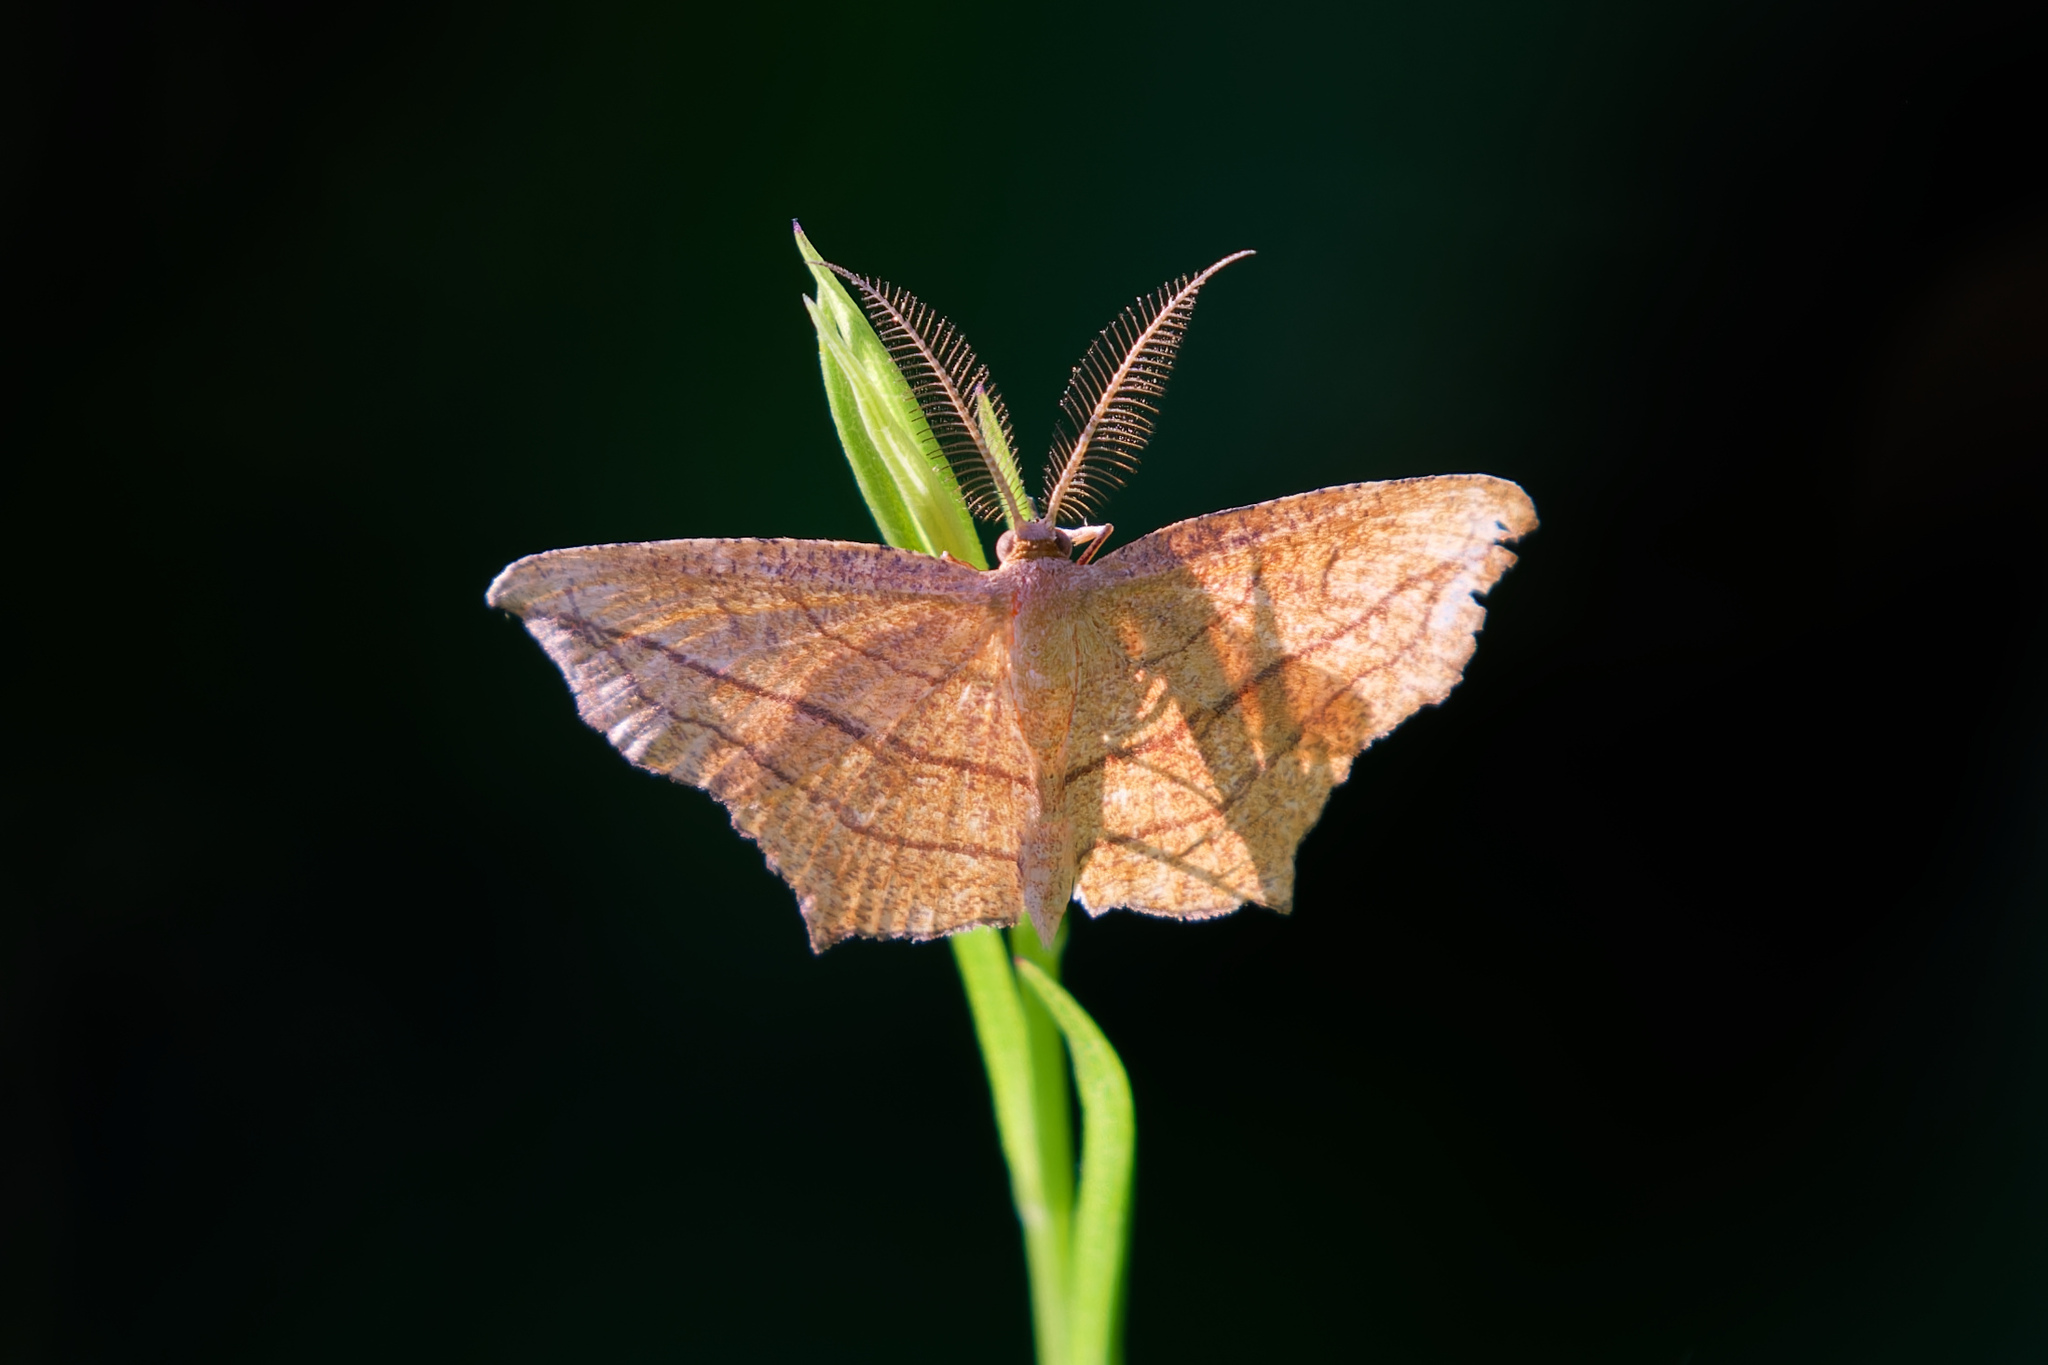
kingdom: Animalia
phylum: Arthropoda
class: Insecta
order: Lepidoptera
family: Geometridae
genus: Timandra
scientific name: Timandra amaturaria
